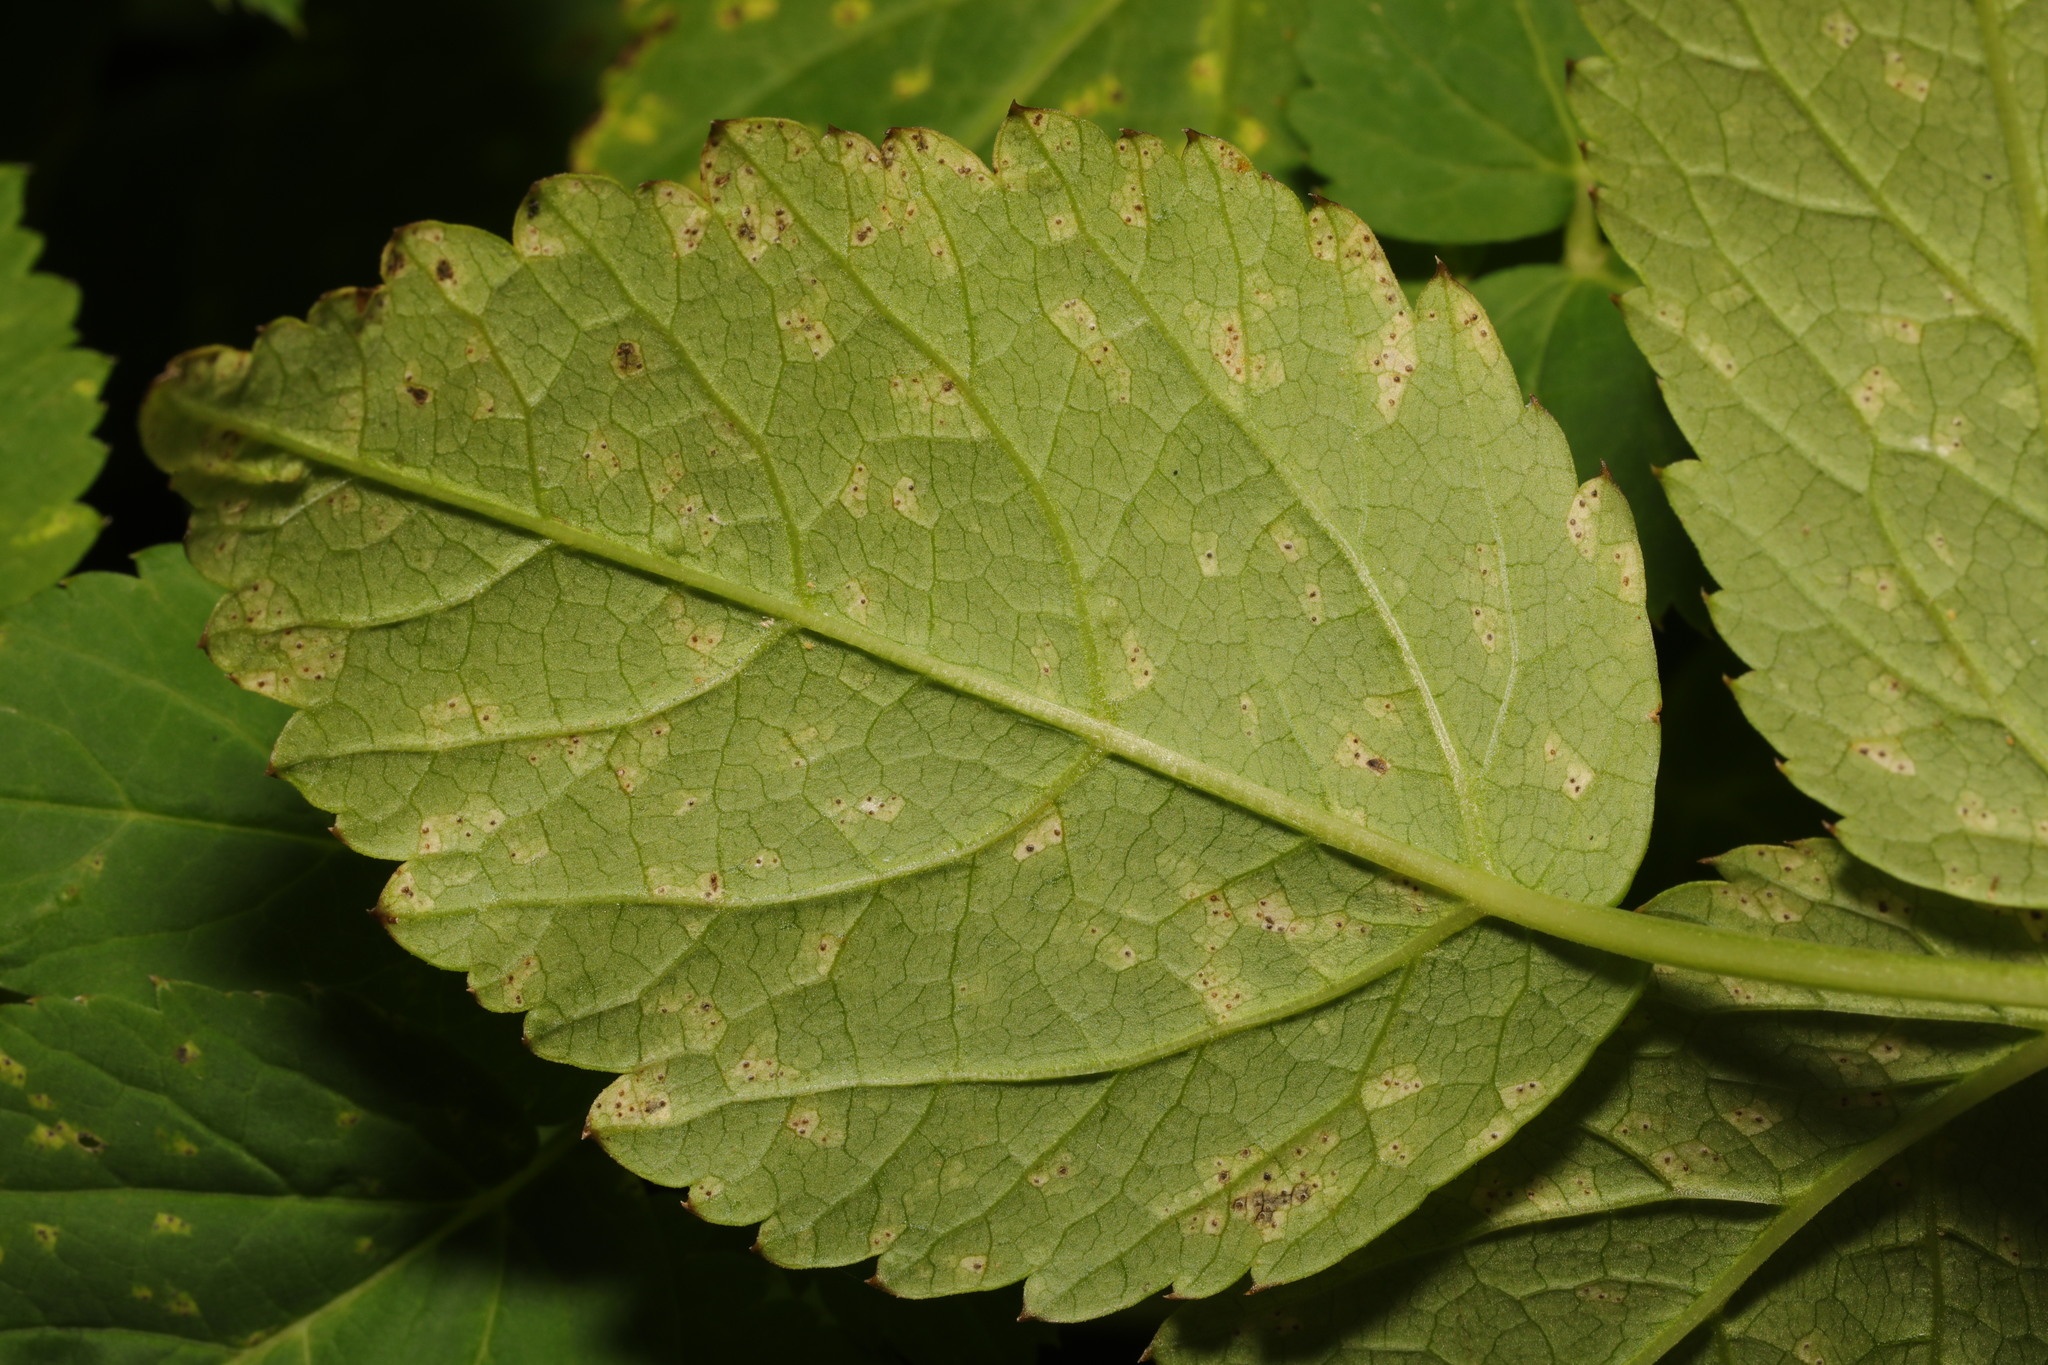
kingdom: Fungi
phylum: Ascomycota
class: Dothideomycetes
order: Mycosphaerellales
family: Mycosphaerellaceae
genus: Mycosphaerella
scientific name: Mycosphaerella podagrariae
